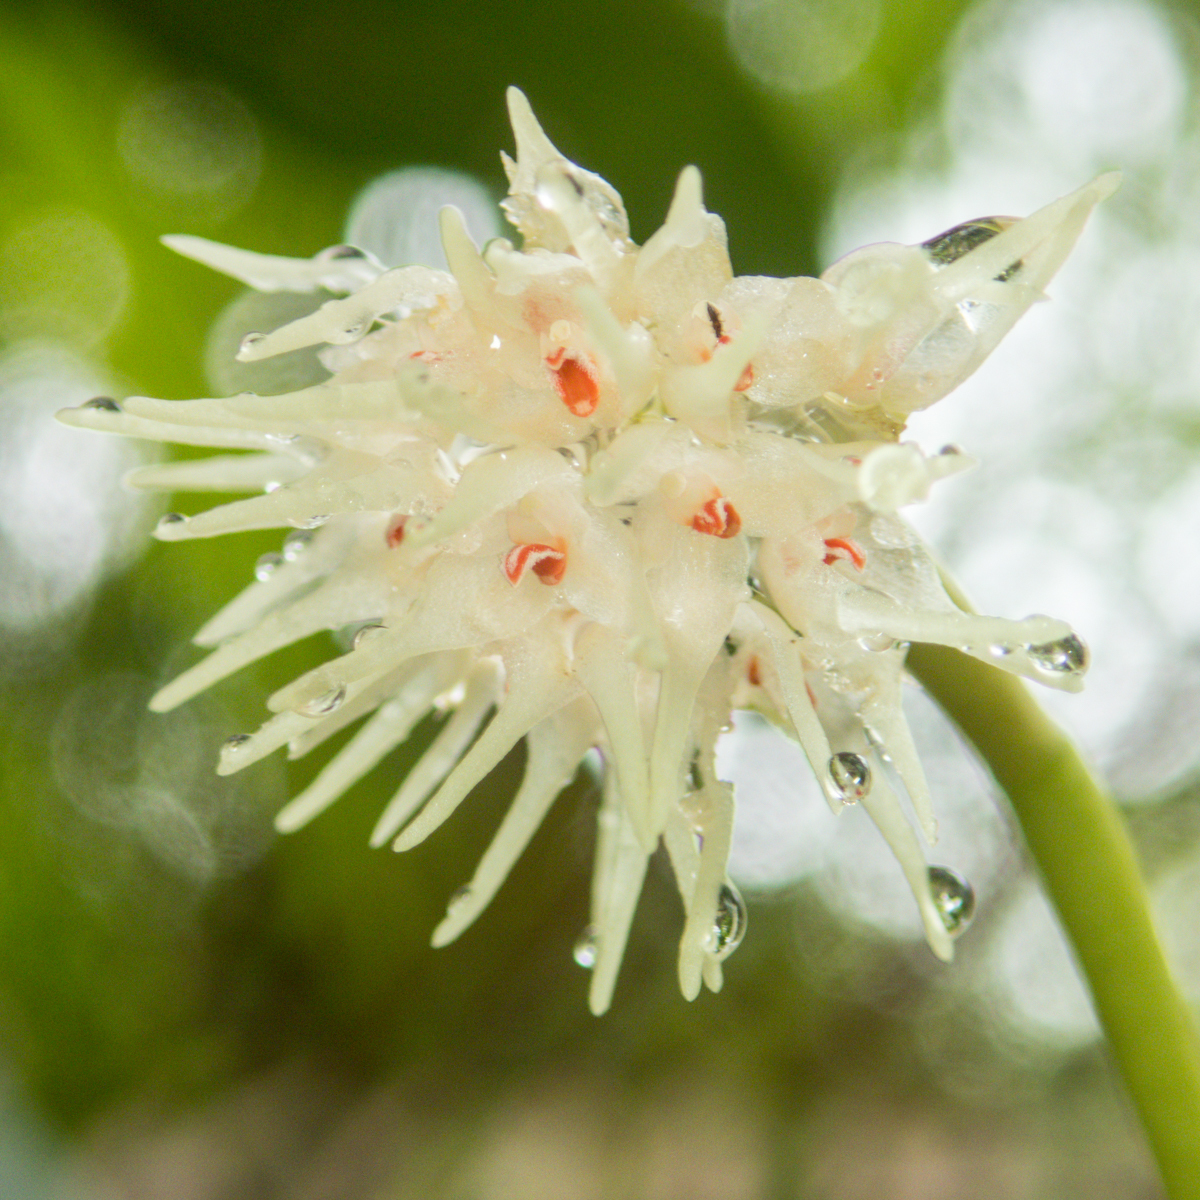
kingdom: Plantae
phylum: Tracheophyta
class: Liliopsida
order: Asparagales
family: Orchidaceae
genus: Bulbophyllum
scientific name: Bulbophyllum odoratissimum
